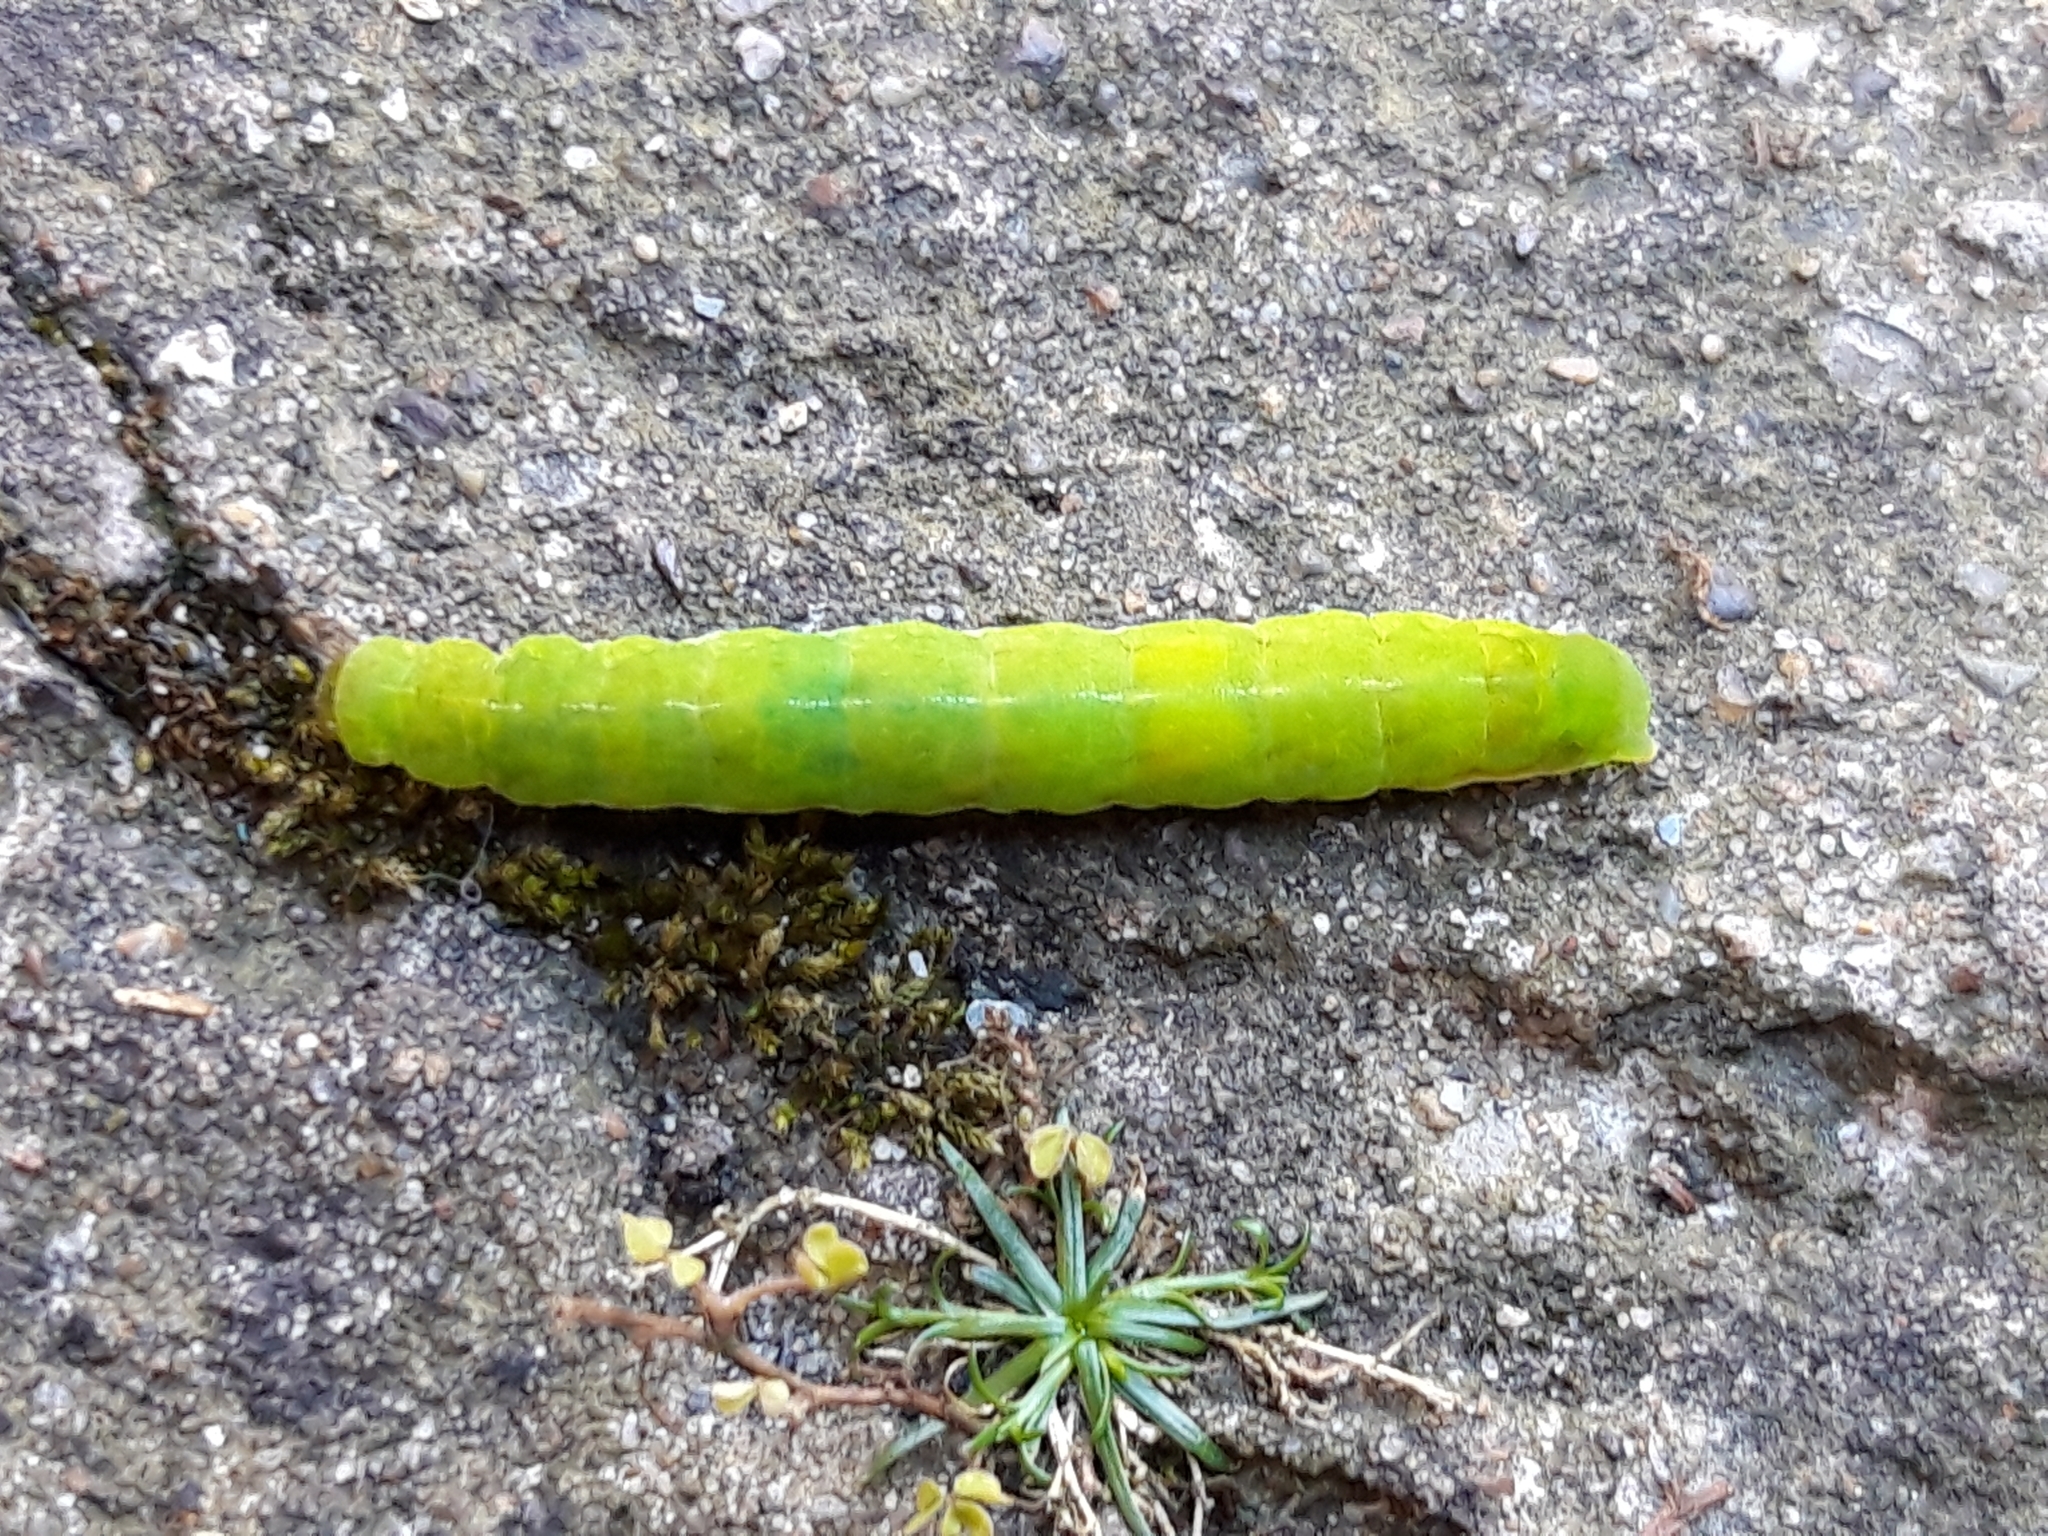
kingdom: Animalia
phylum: Arthropoda
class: Insecta
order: Lepidoptera
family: Noctuidae
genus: Phlogophora
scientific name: Phlogophora meticulosa
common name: Angle shades
